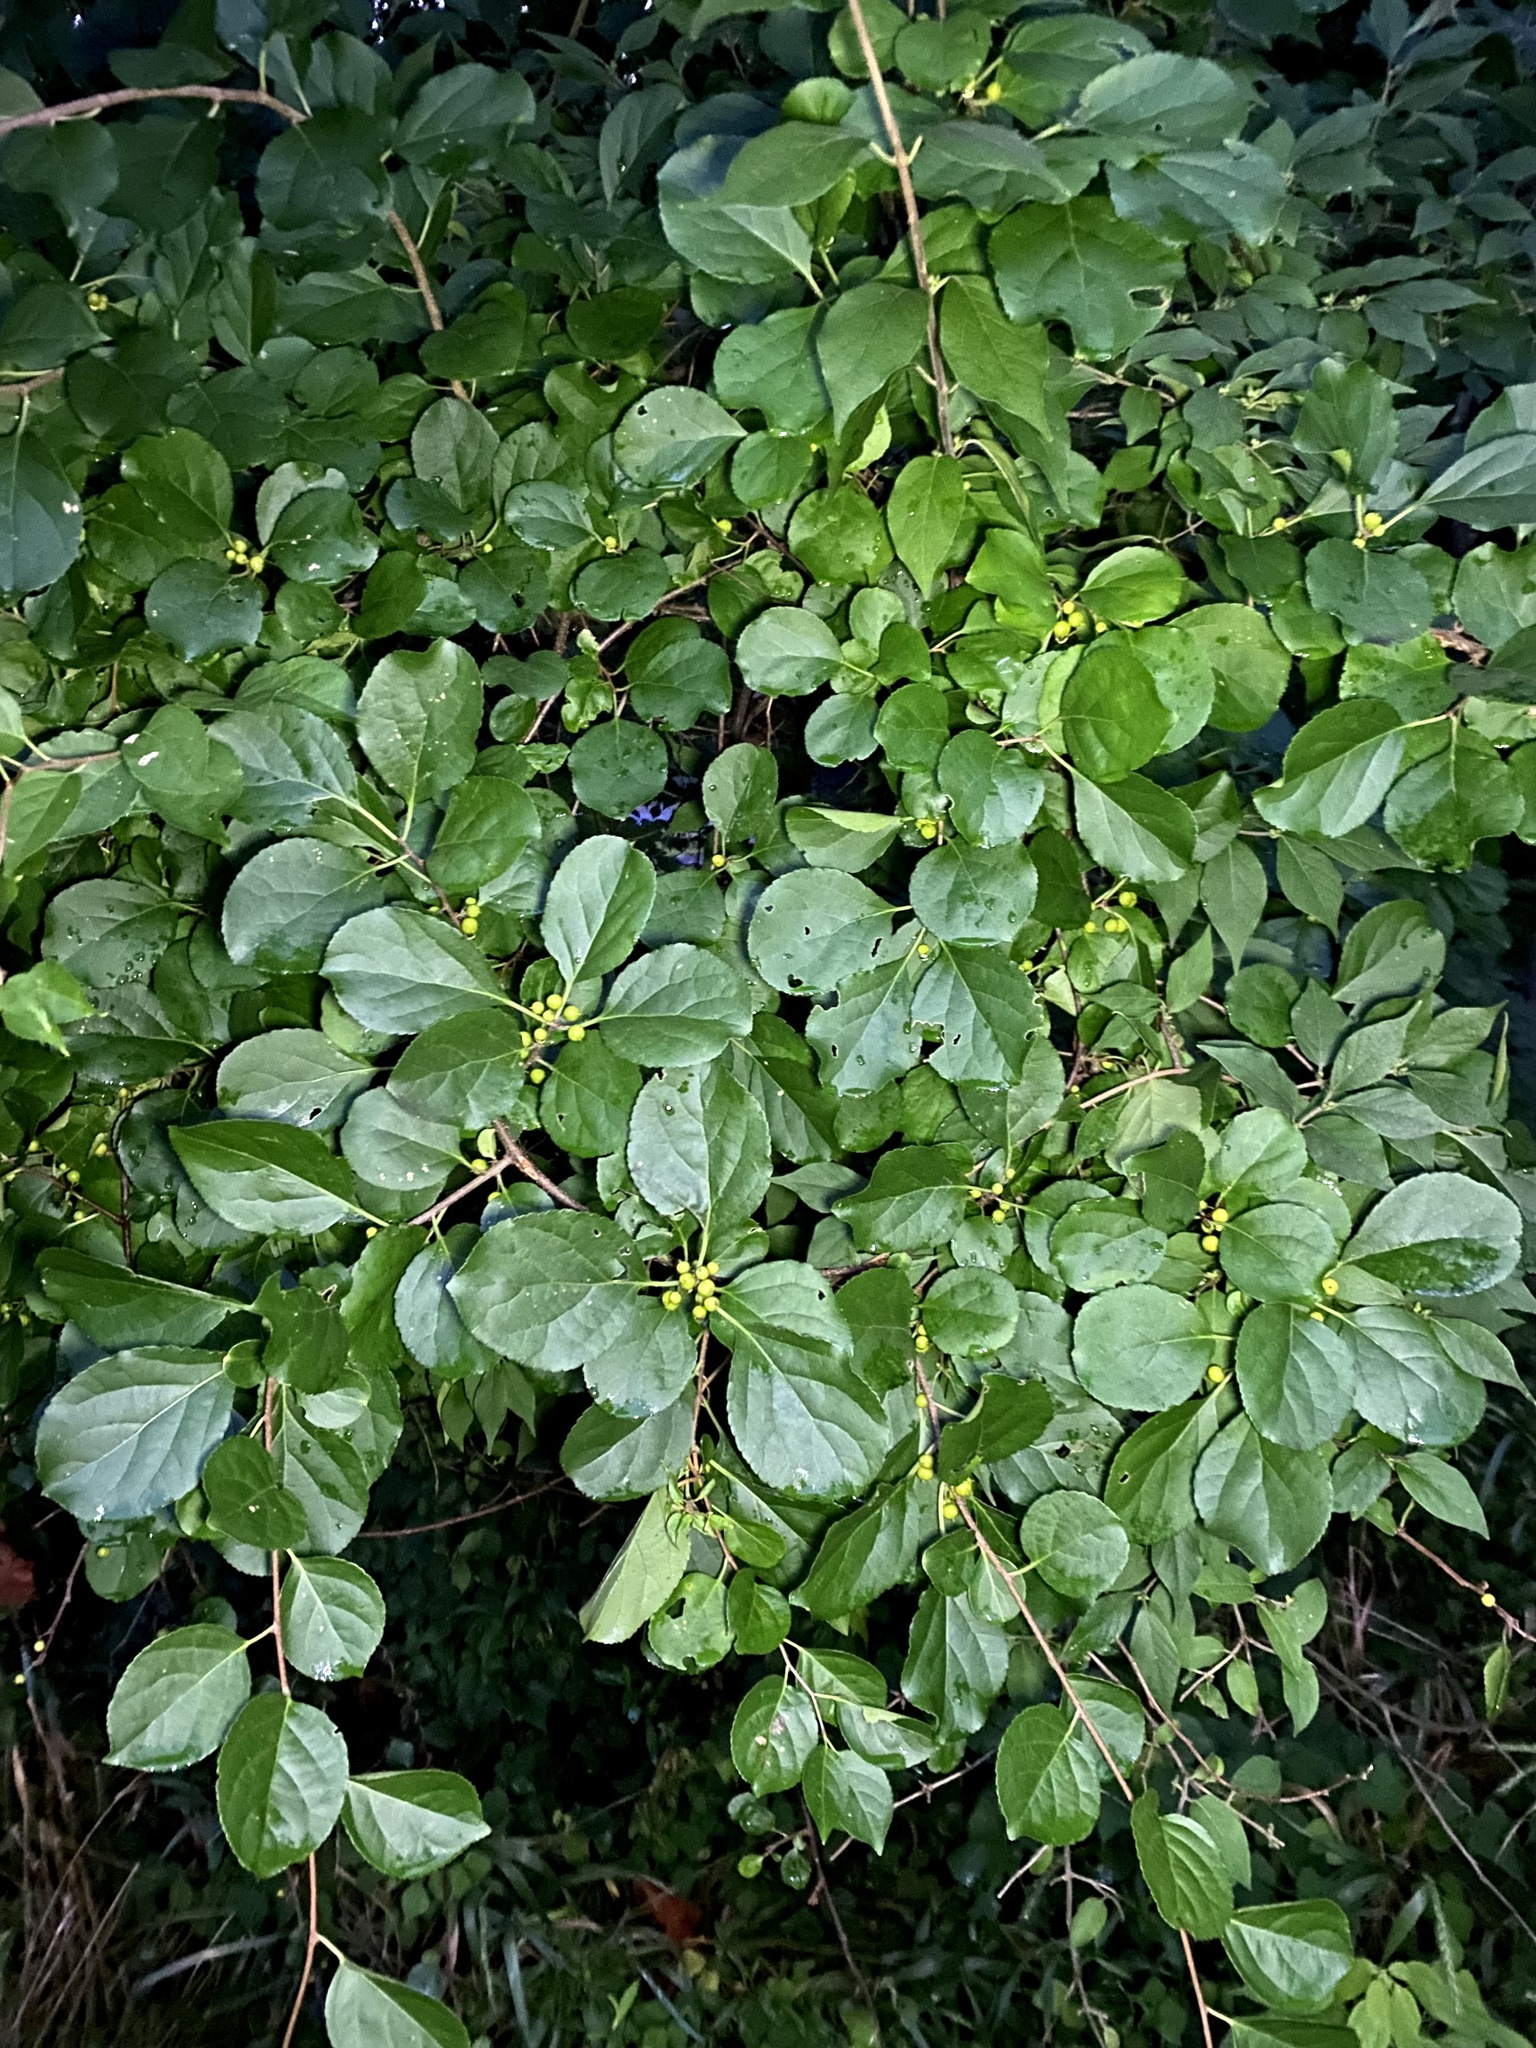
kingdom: Plantae
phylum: Tracheophyta
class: Magnoliopsida
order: Celastrales
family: Celastraceae
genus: Celastrus
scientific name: Celastrus orbiculatus
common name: Oriental bittersweet
